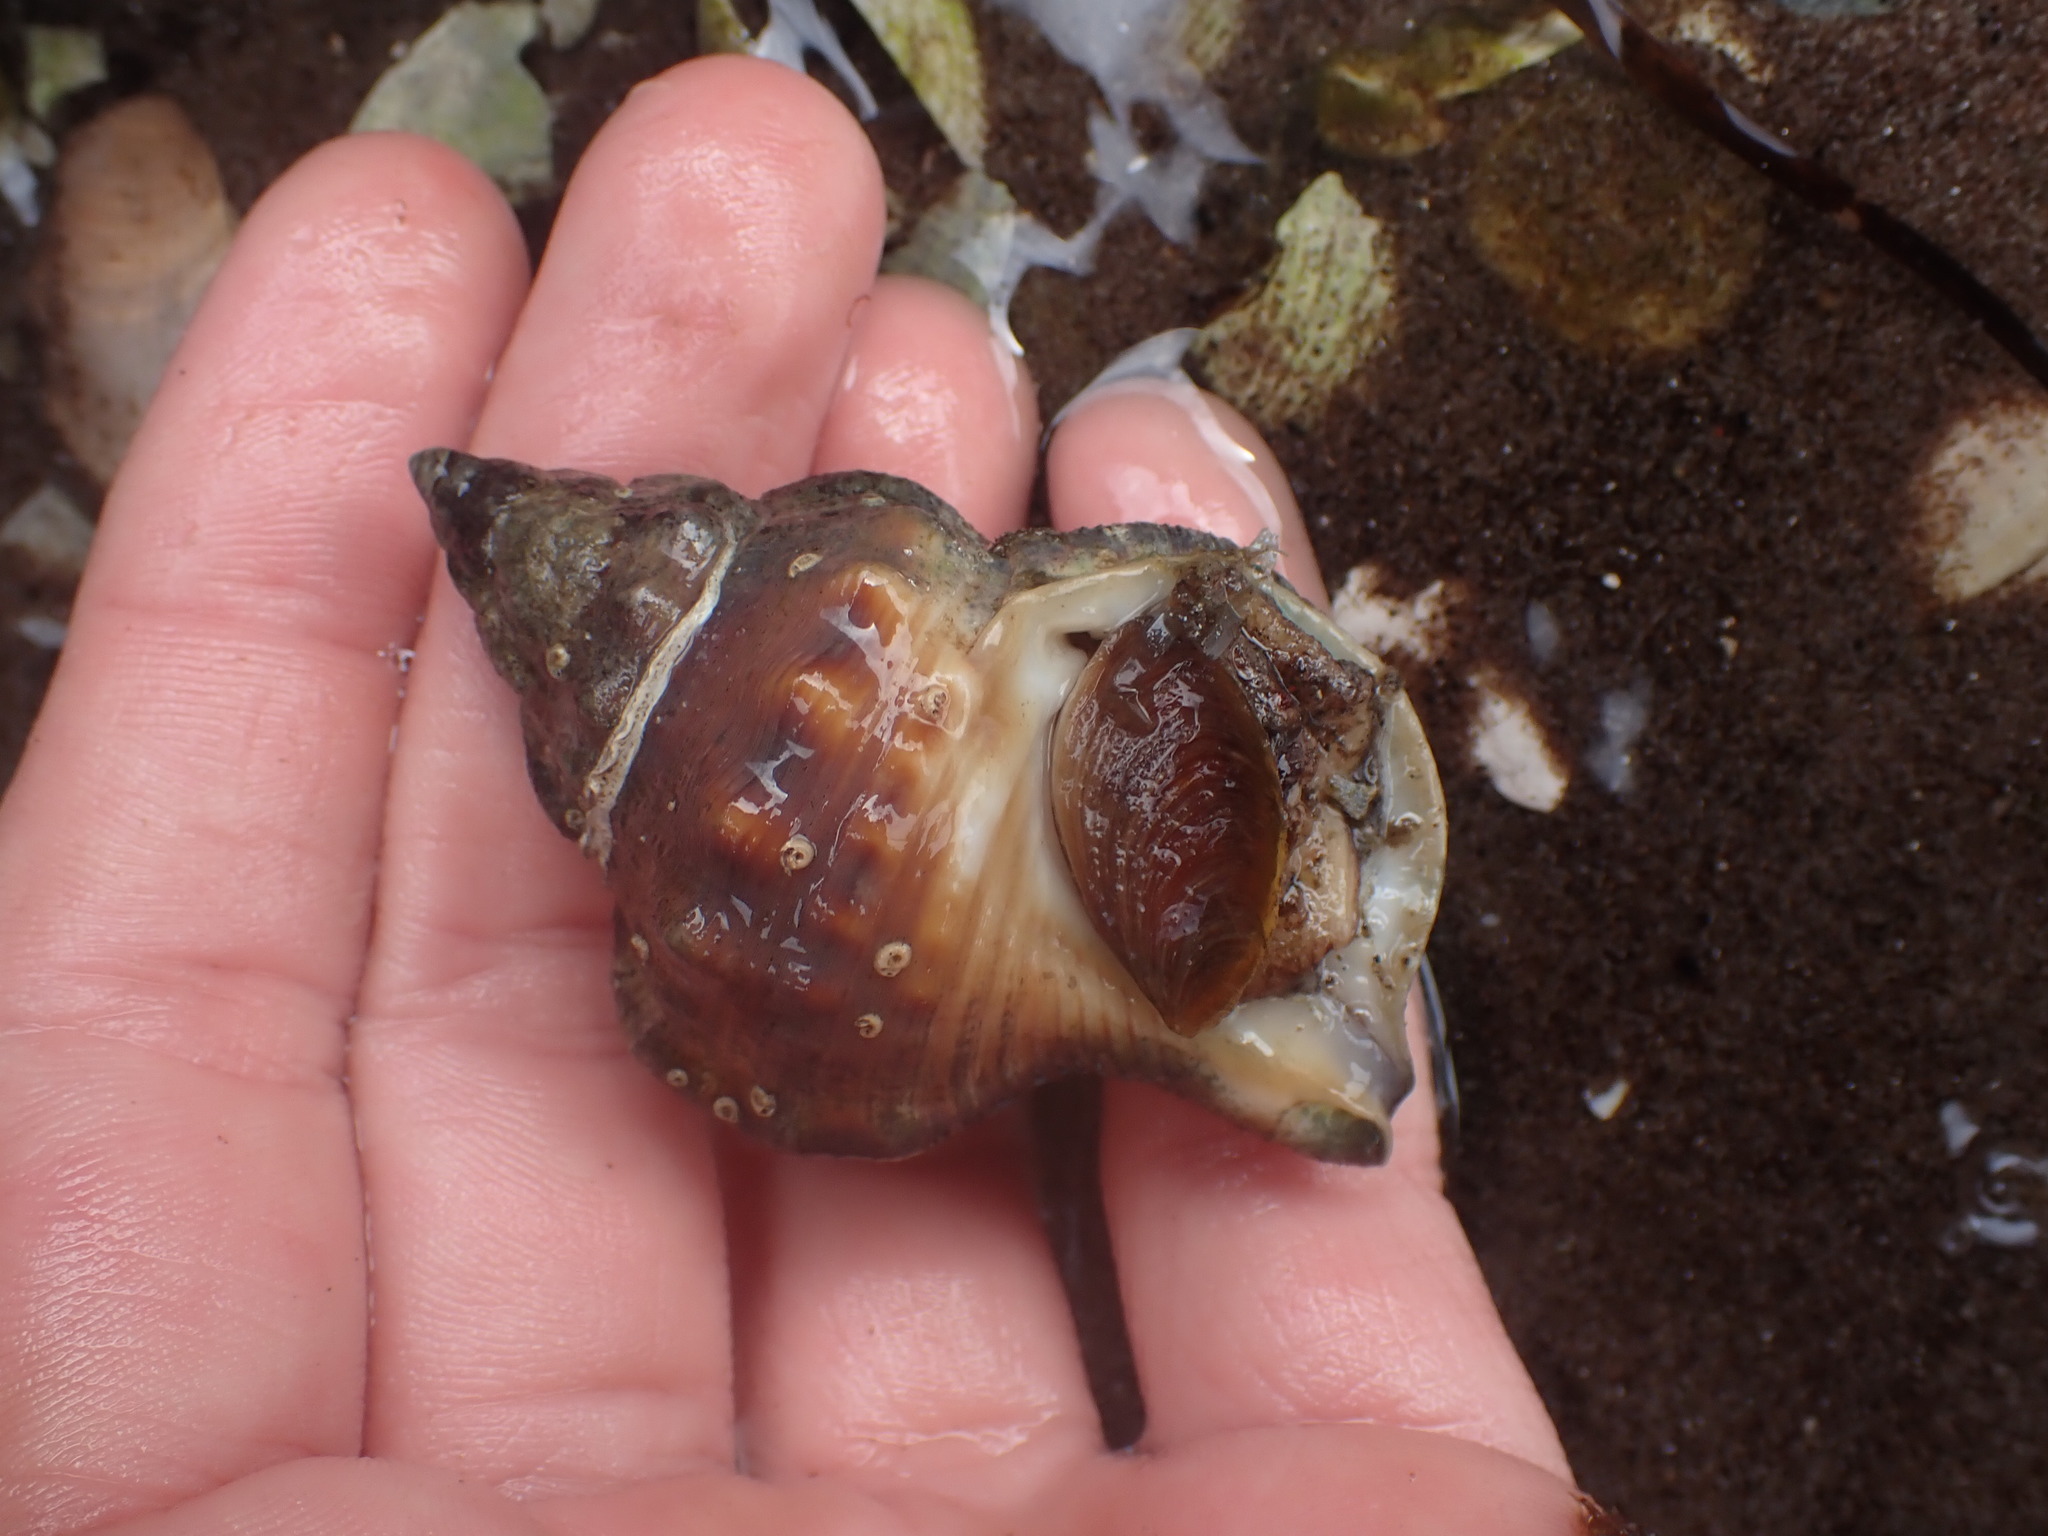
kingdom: Animalia
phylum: Mollusca
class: Gastropoda
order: Littorinimorpha
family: Ranellidae
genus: Ranella
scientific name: Ranella australasia
